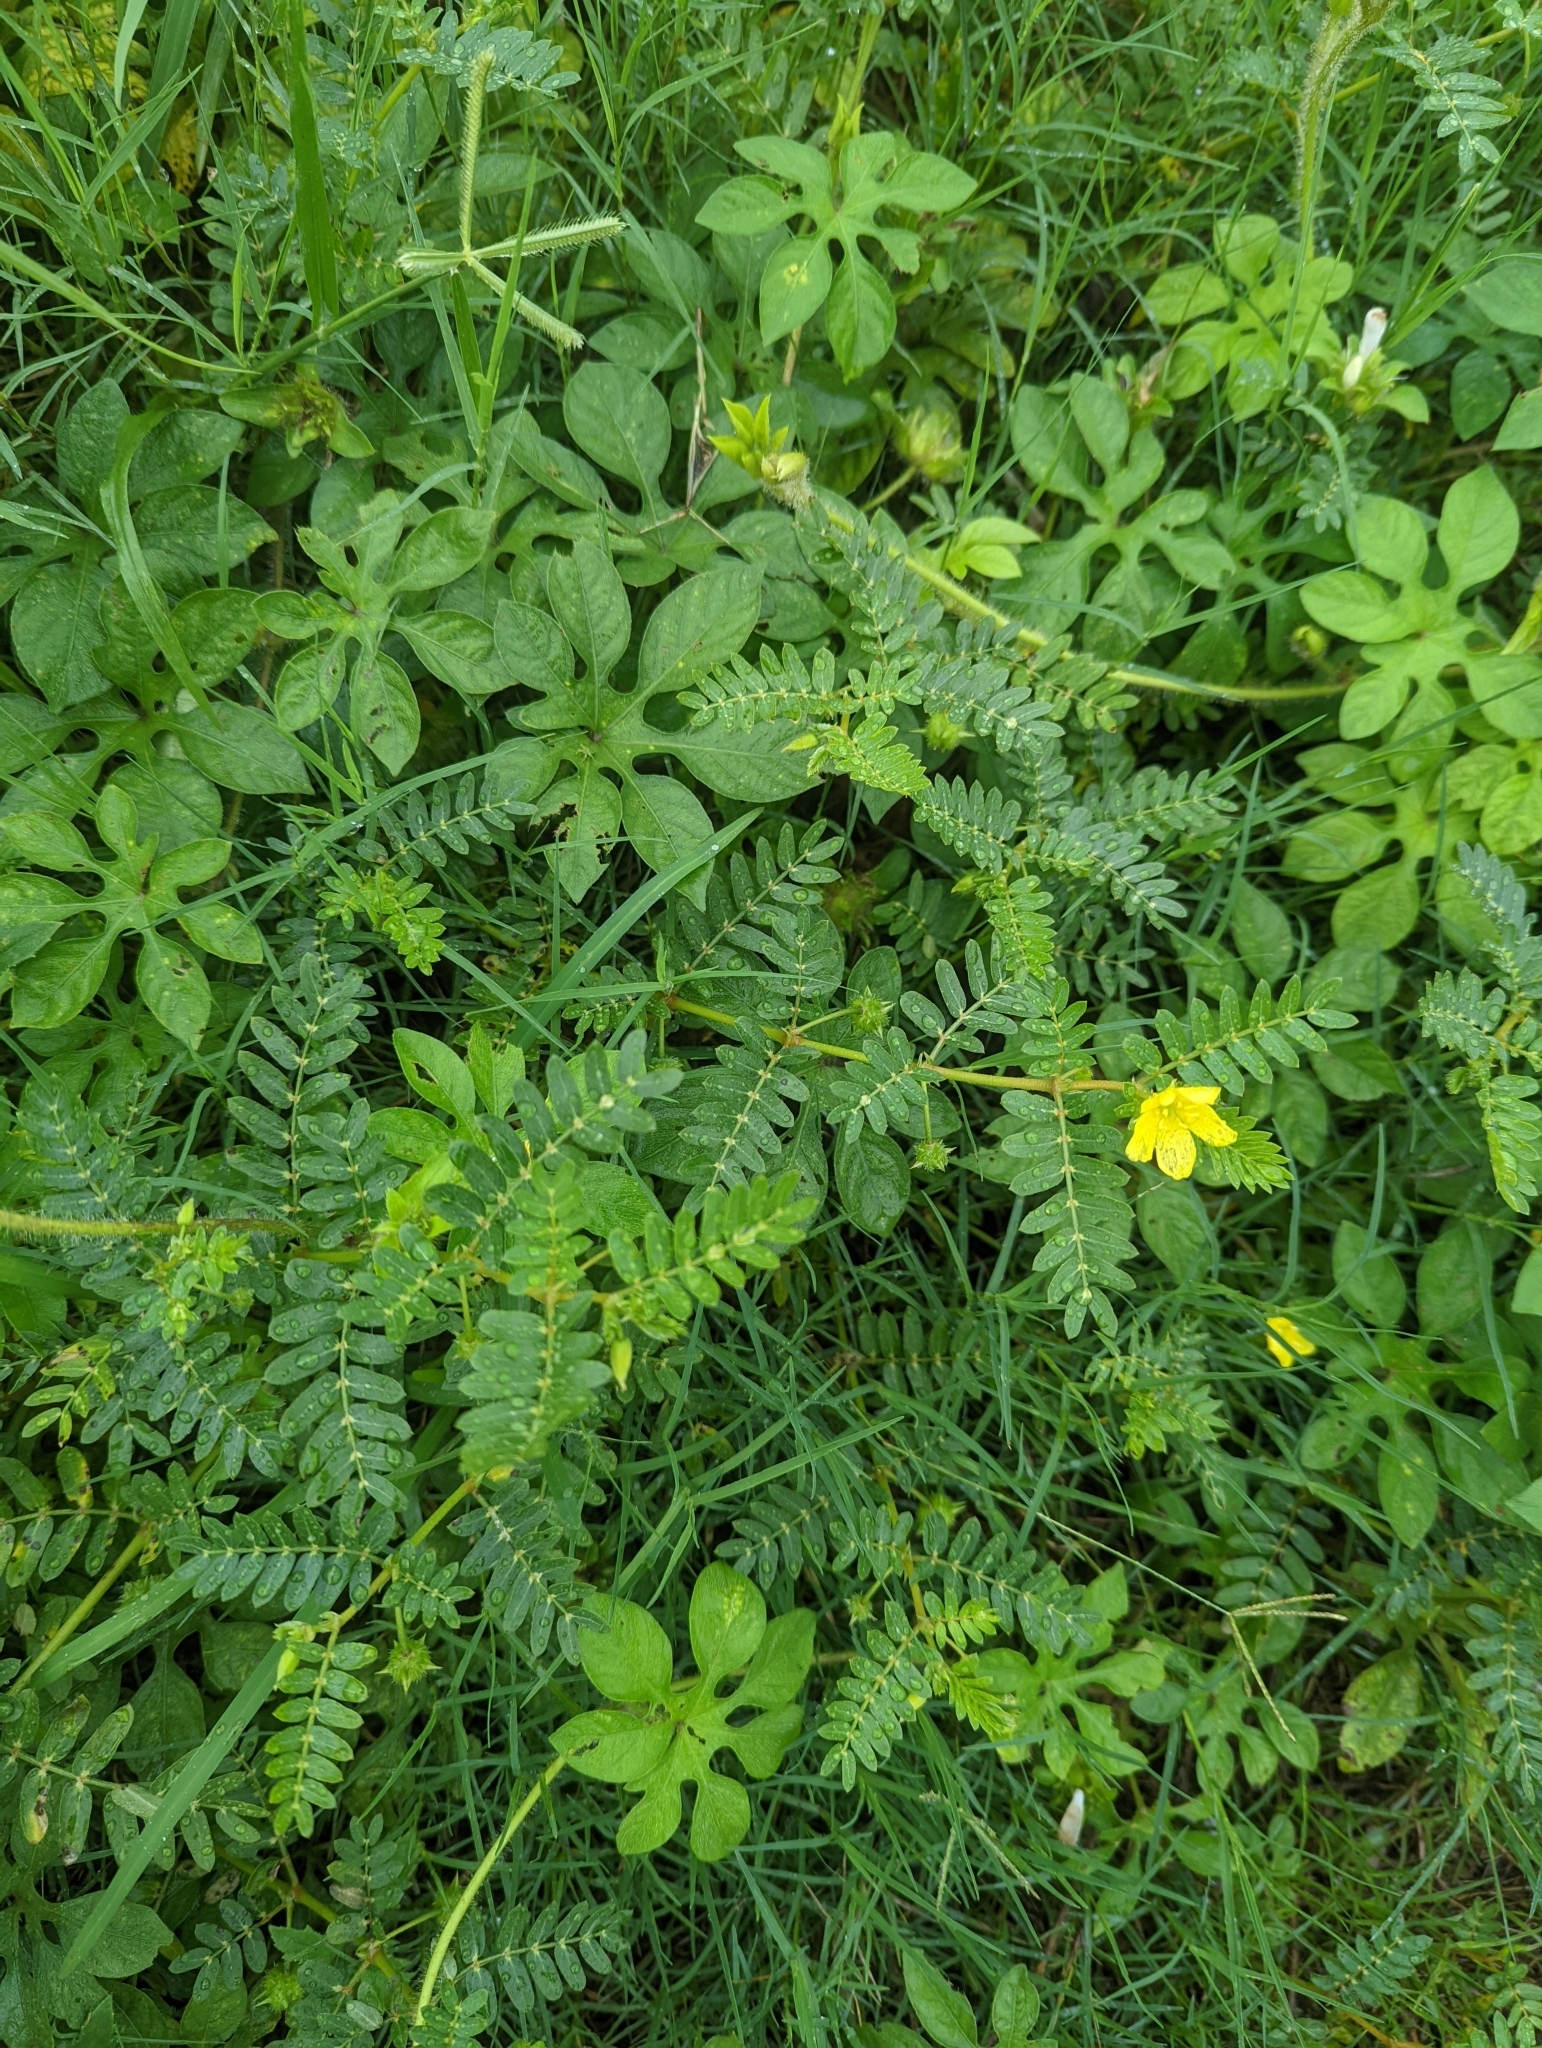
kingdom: Plantae
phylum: Tracheophyta
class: Magnoliopsida
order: Zygophyllales
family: Zygophyllaceae
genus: Tribulus
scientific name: Tribulus terrestris
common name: Puncturevine
